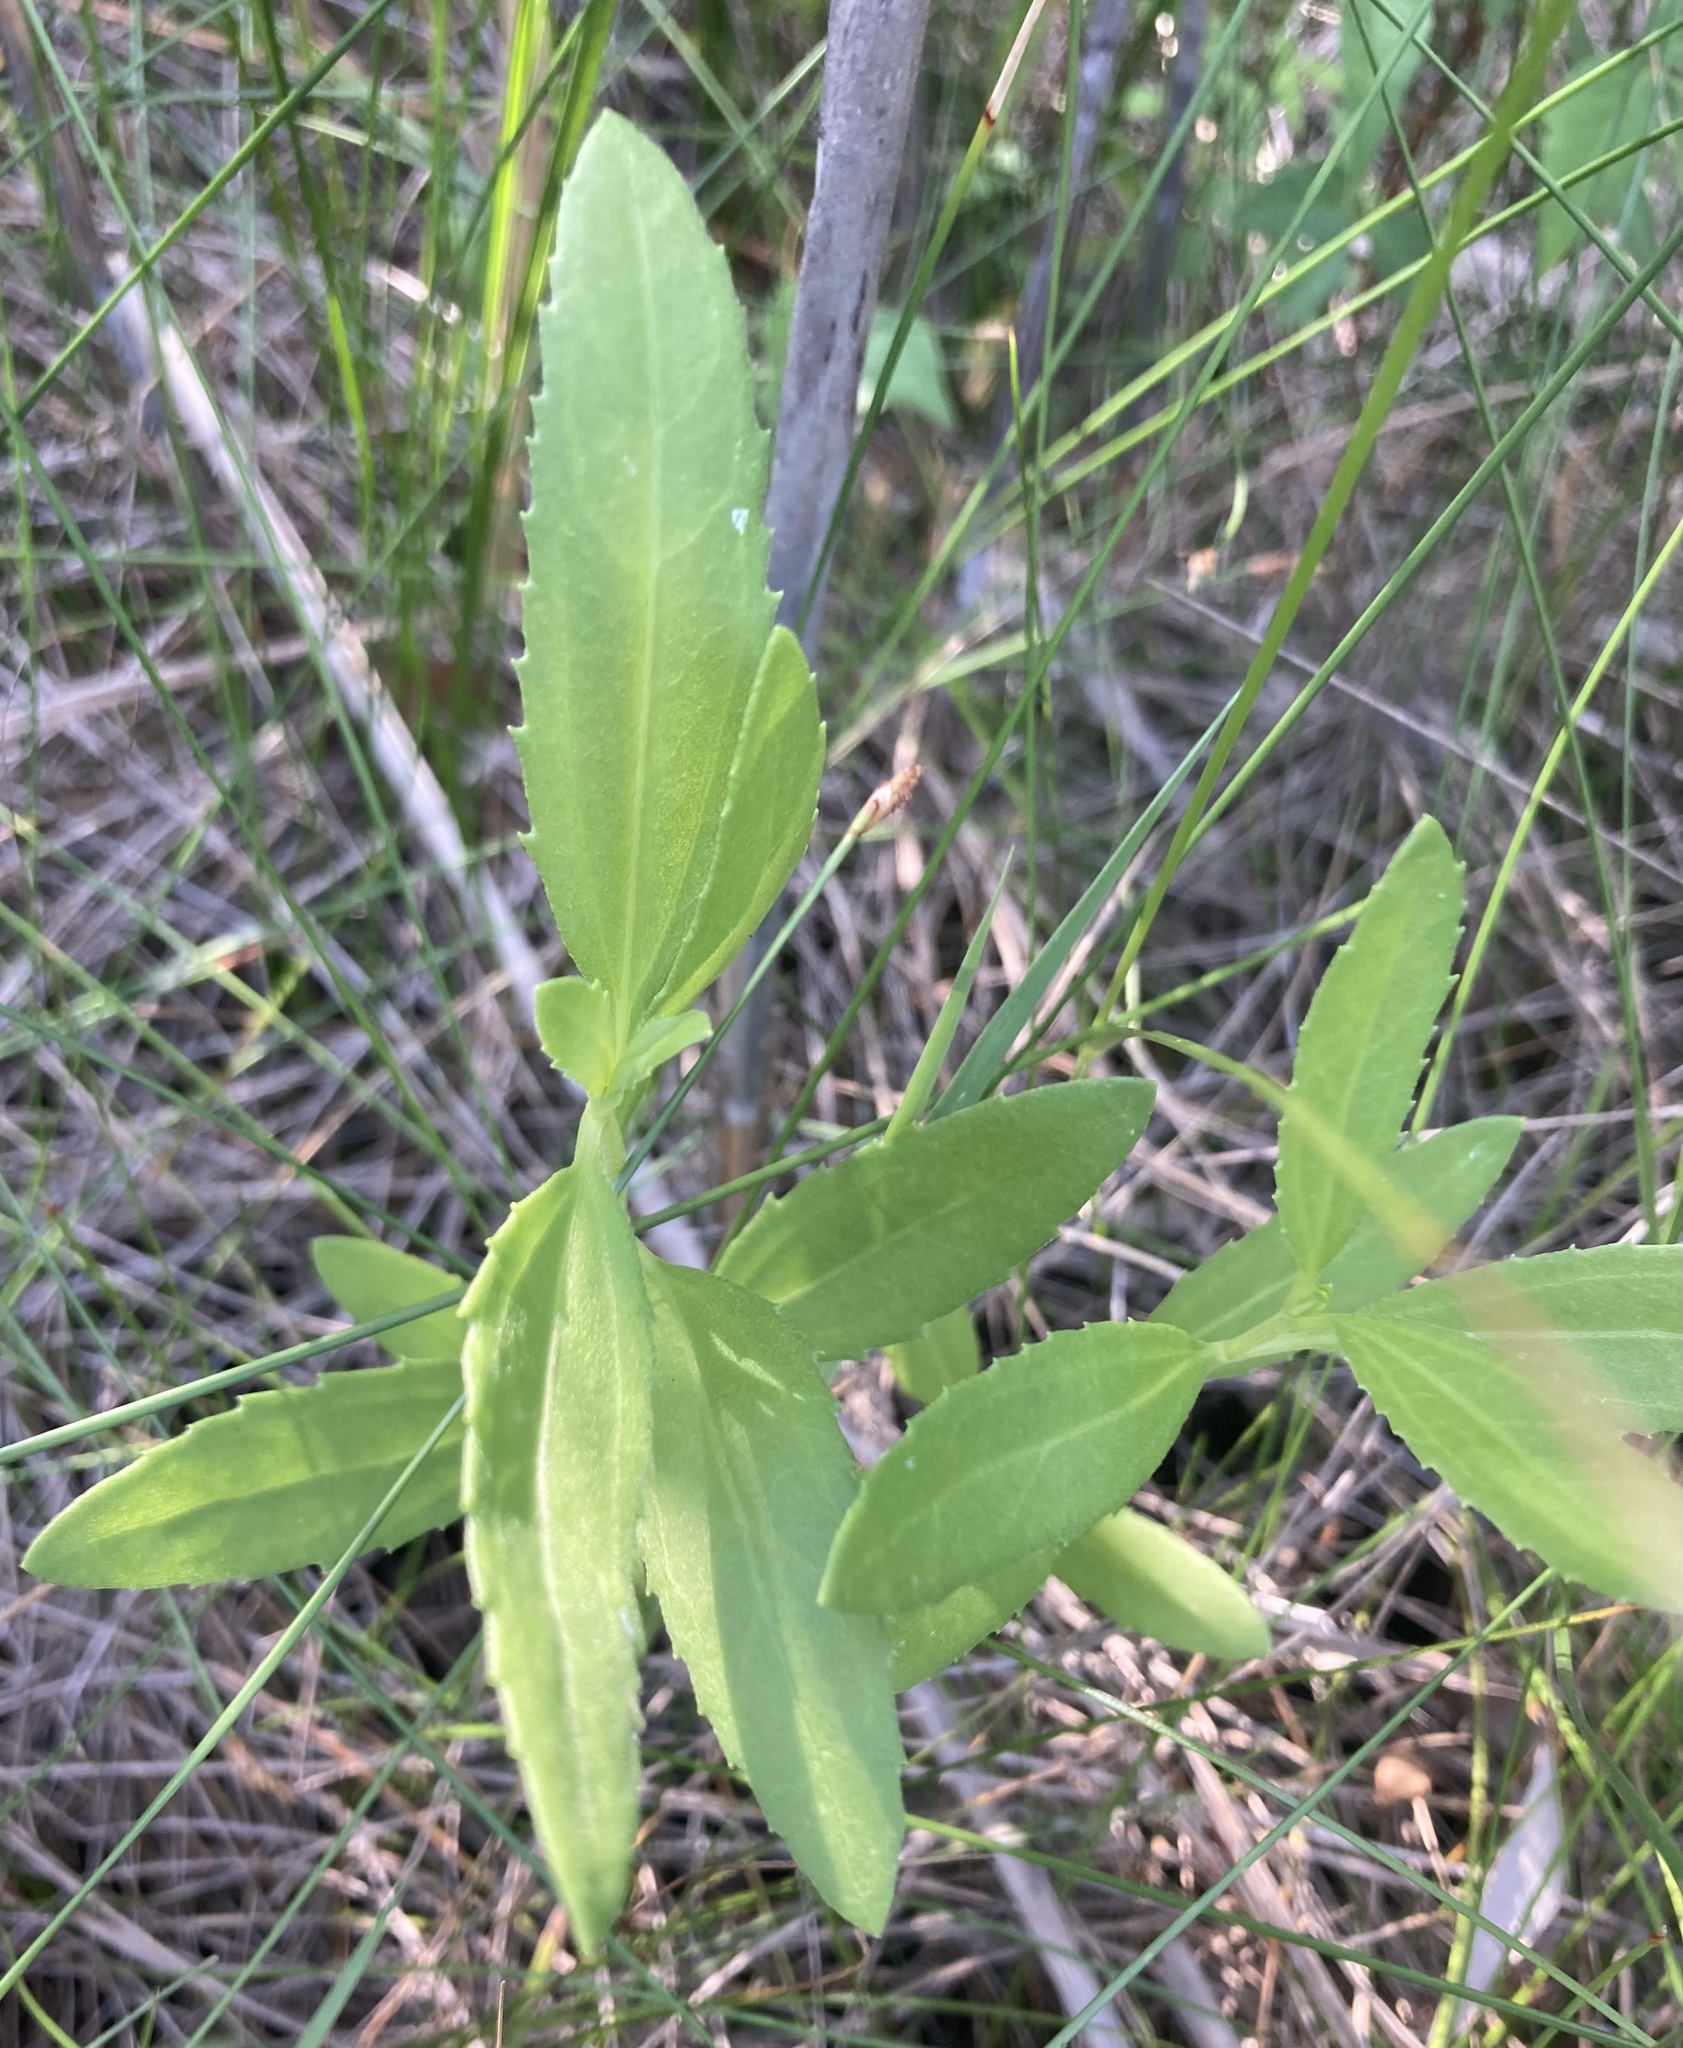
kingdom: Plantae
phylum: Tracheophyta
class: Magnoliopsida
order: Asterales
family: Asteraceae
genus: Iva
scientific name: Iva frutescens
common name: Big-leaved marsh-elder
